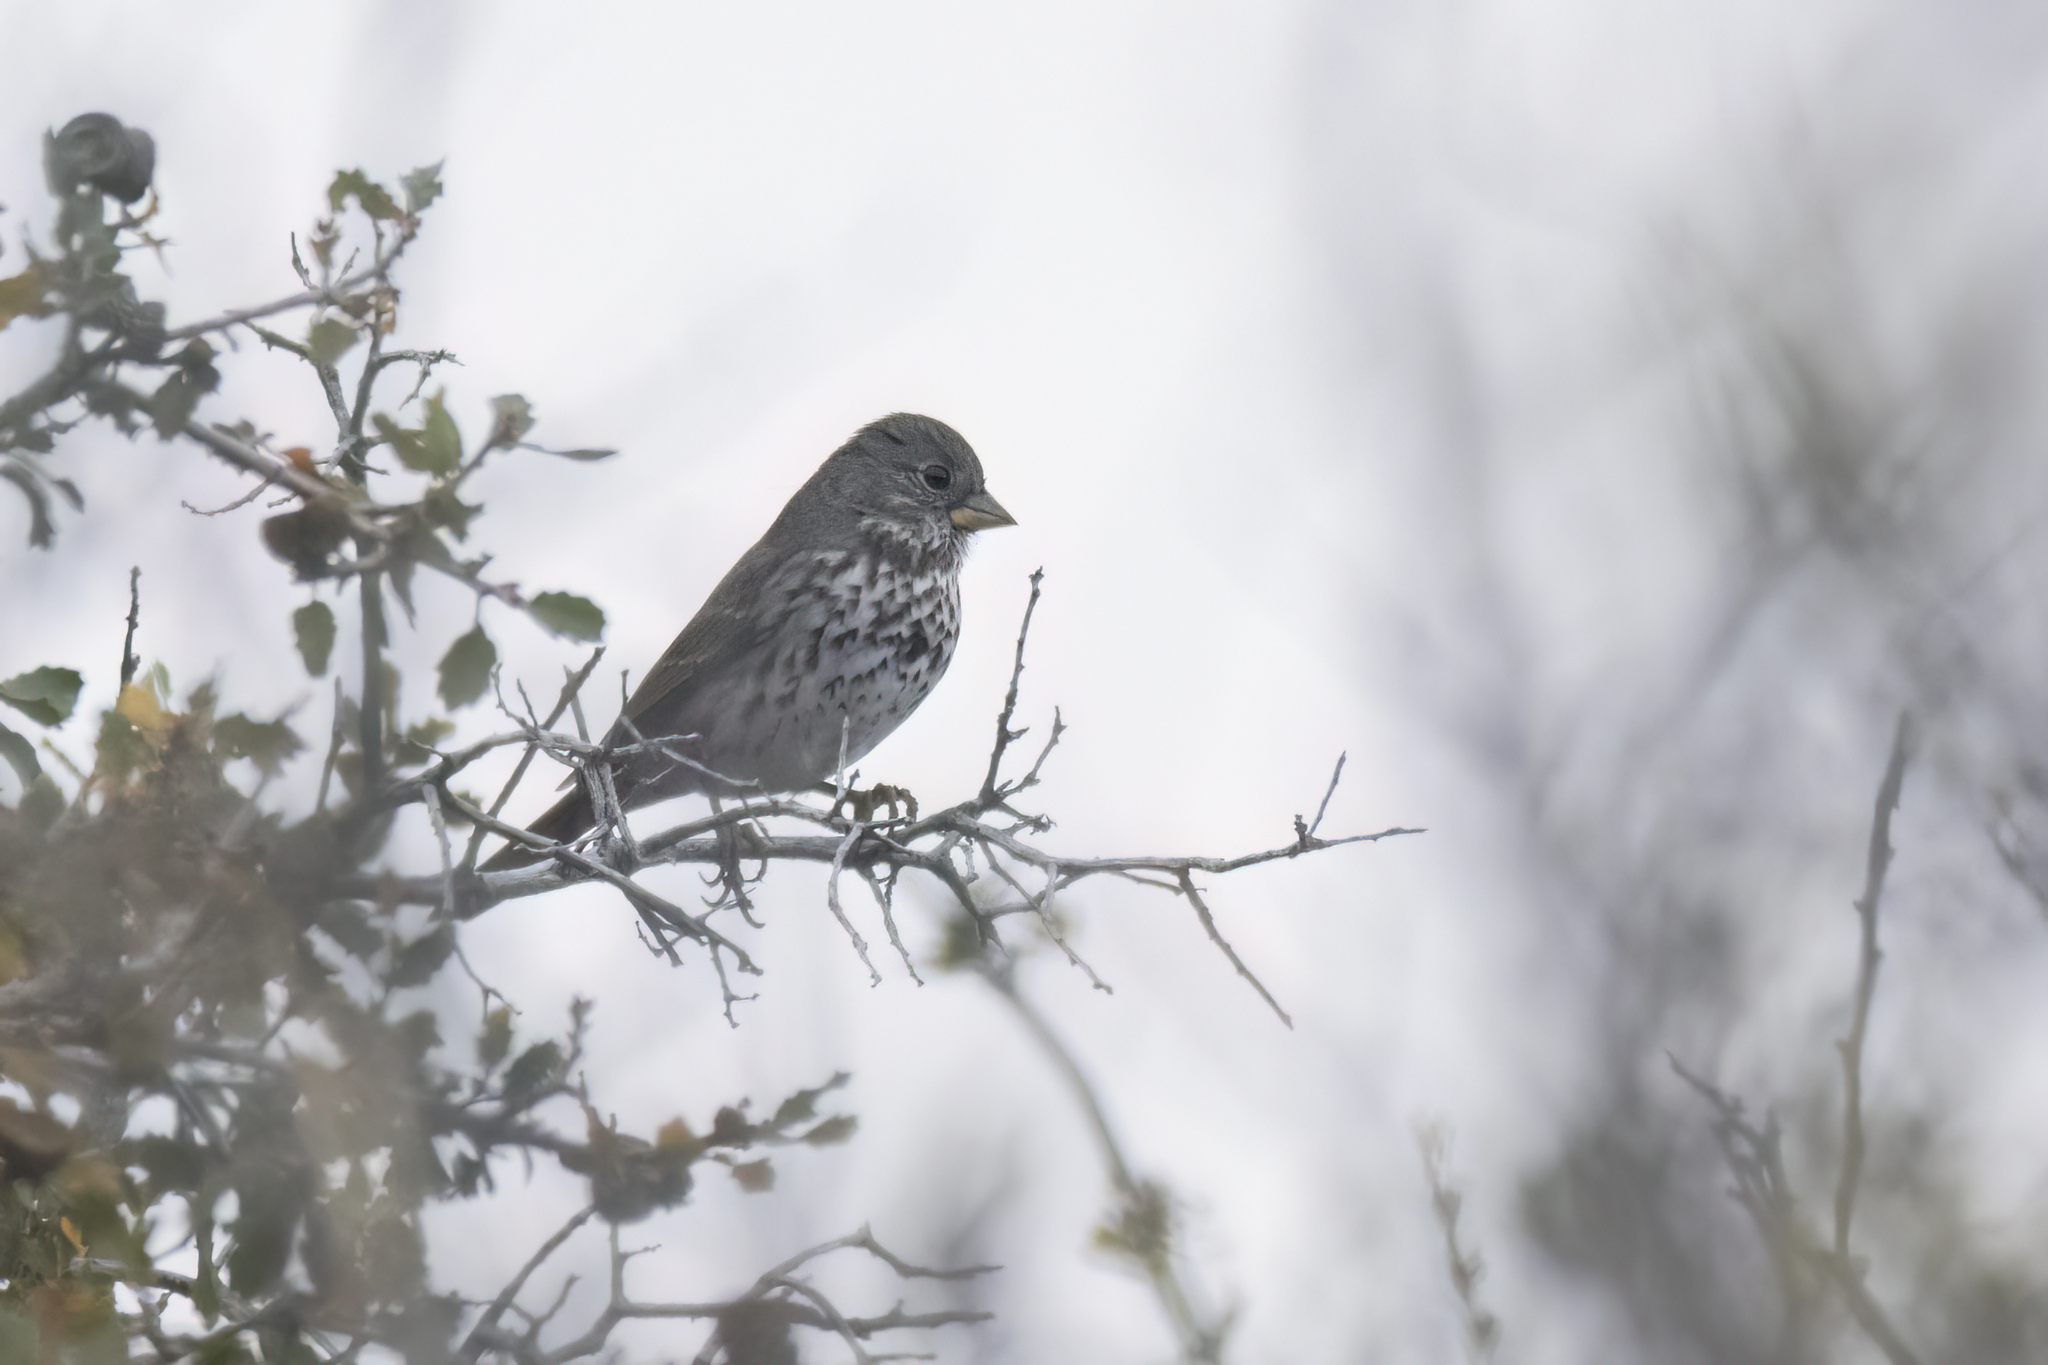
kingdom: Animalia
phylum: Chordata
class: Aves
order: Passeriformes
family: Passerellidae
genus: Passerella
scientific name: Passerella iliaca
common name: Fox sparrow
